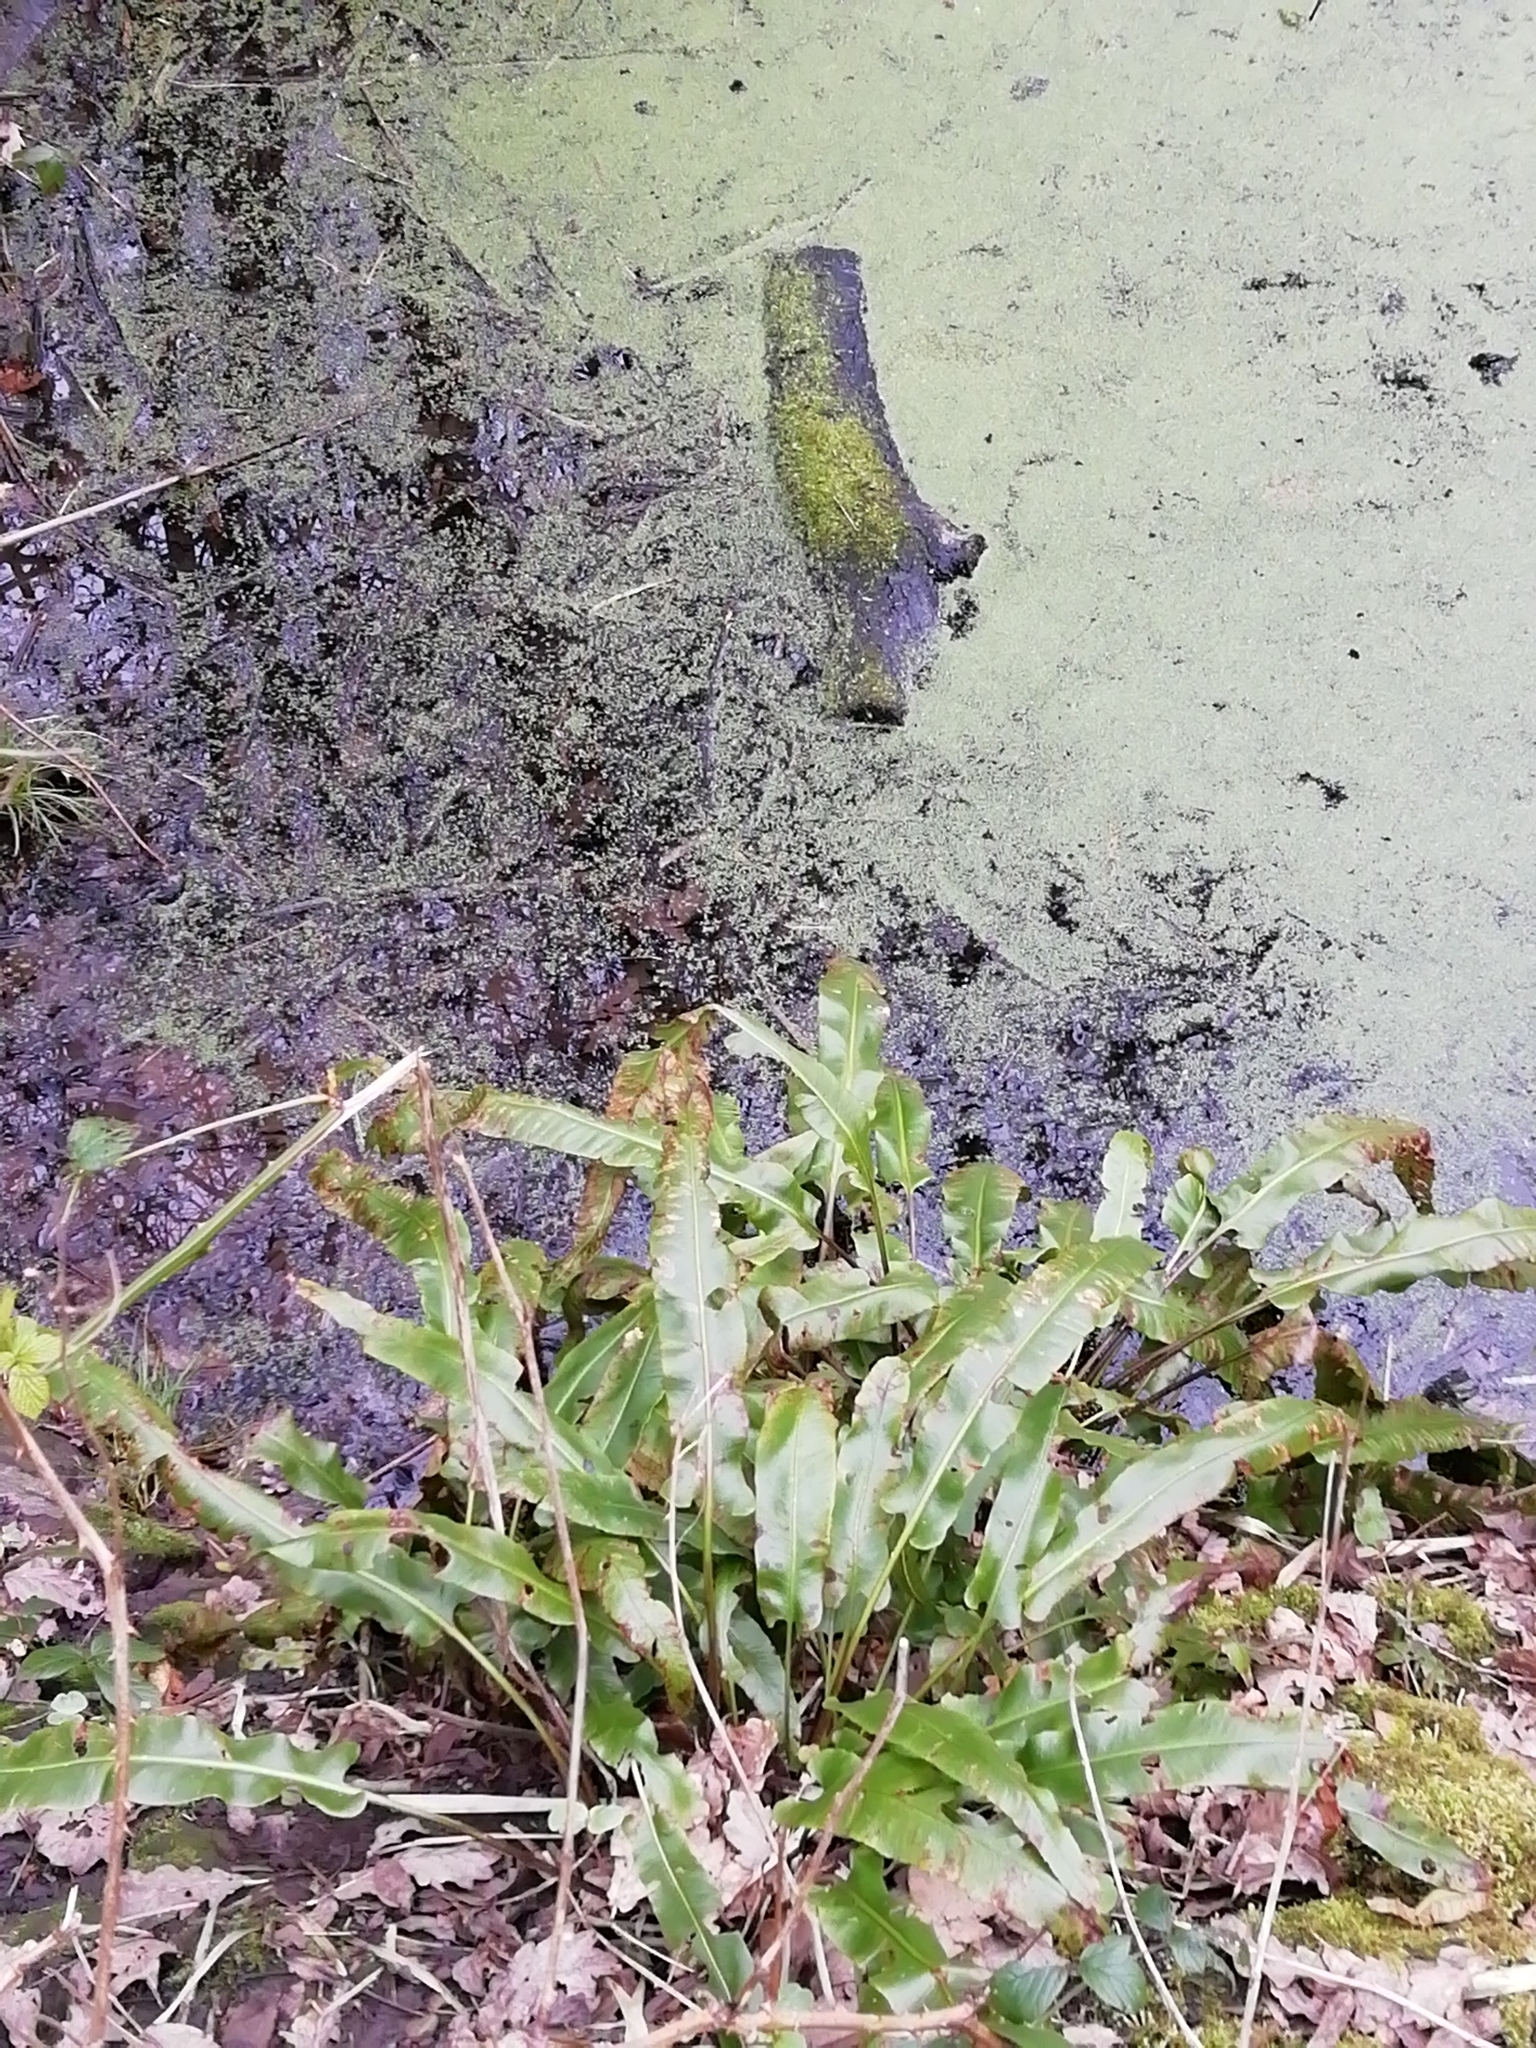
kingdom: Plantae
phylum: Tracheophyta
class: Polypodiopsida
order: Polypodiales
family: Aspleniaceae
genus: Asplenium
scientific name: Asplenium scolopendrium
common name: Hart's-tongue fern
